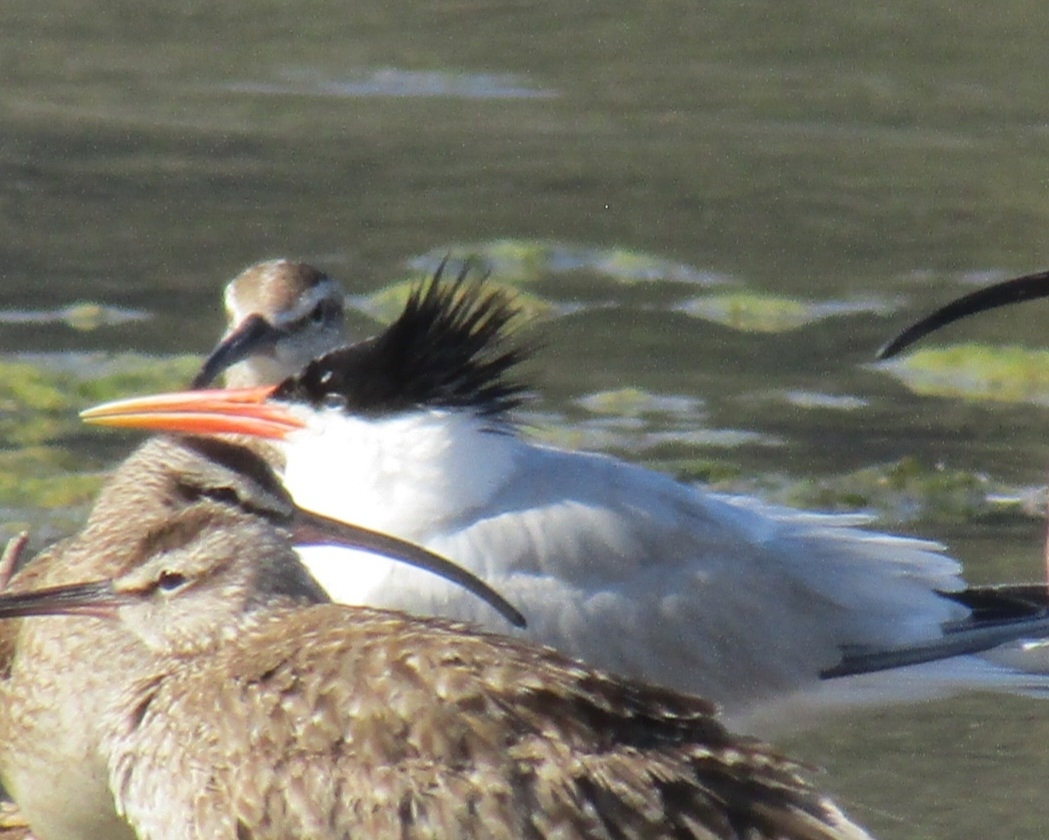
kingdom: Animalia
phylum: Chordata
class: Aves
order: Charadriiformes
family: Laridae
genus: Thalasseus
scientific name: Thalasseus maximus
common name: Royal tern
